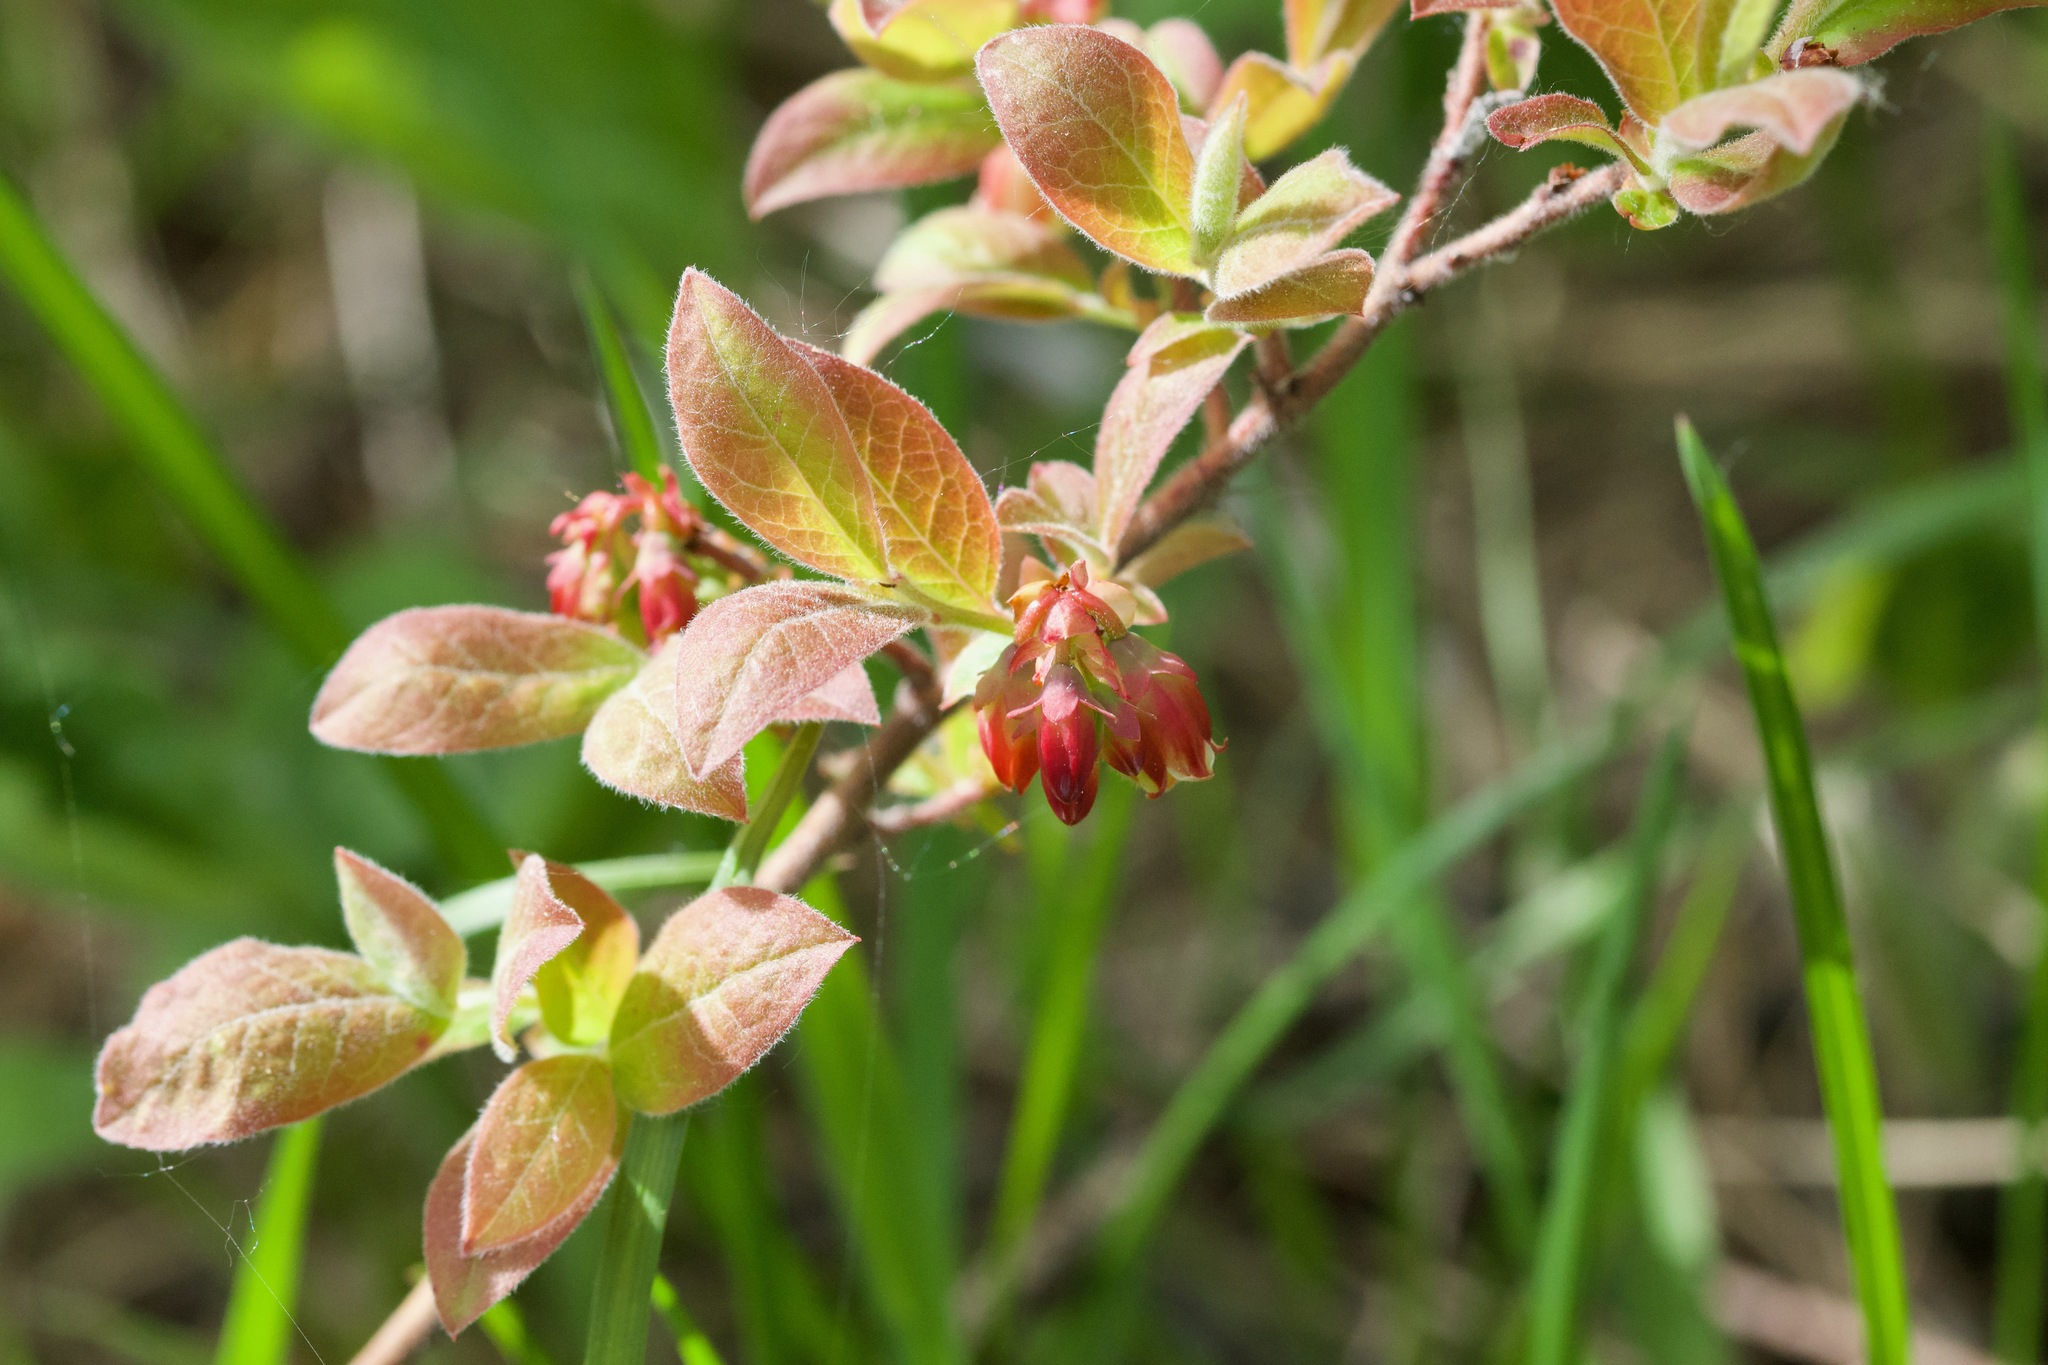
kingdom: Plantae
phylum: Tracheophyta
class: Magnoliopsida
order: Ericales
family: Ericaceae
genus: Vaccinium
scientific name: Vaccinium myrtilloides
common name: Canada blueberry
